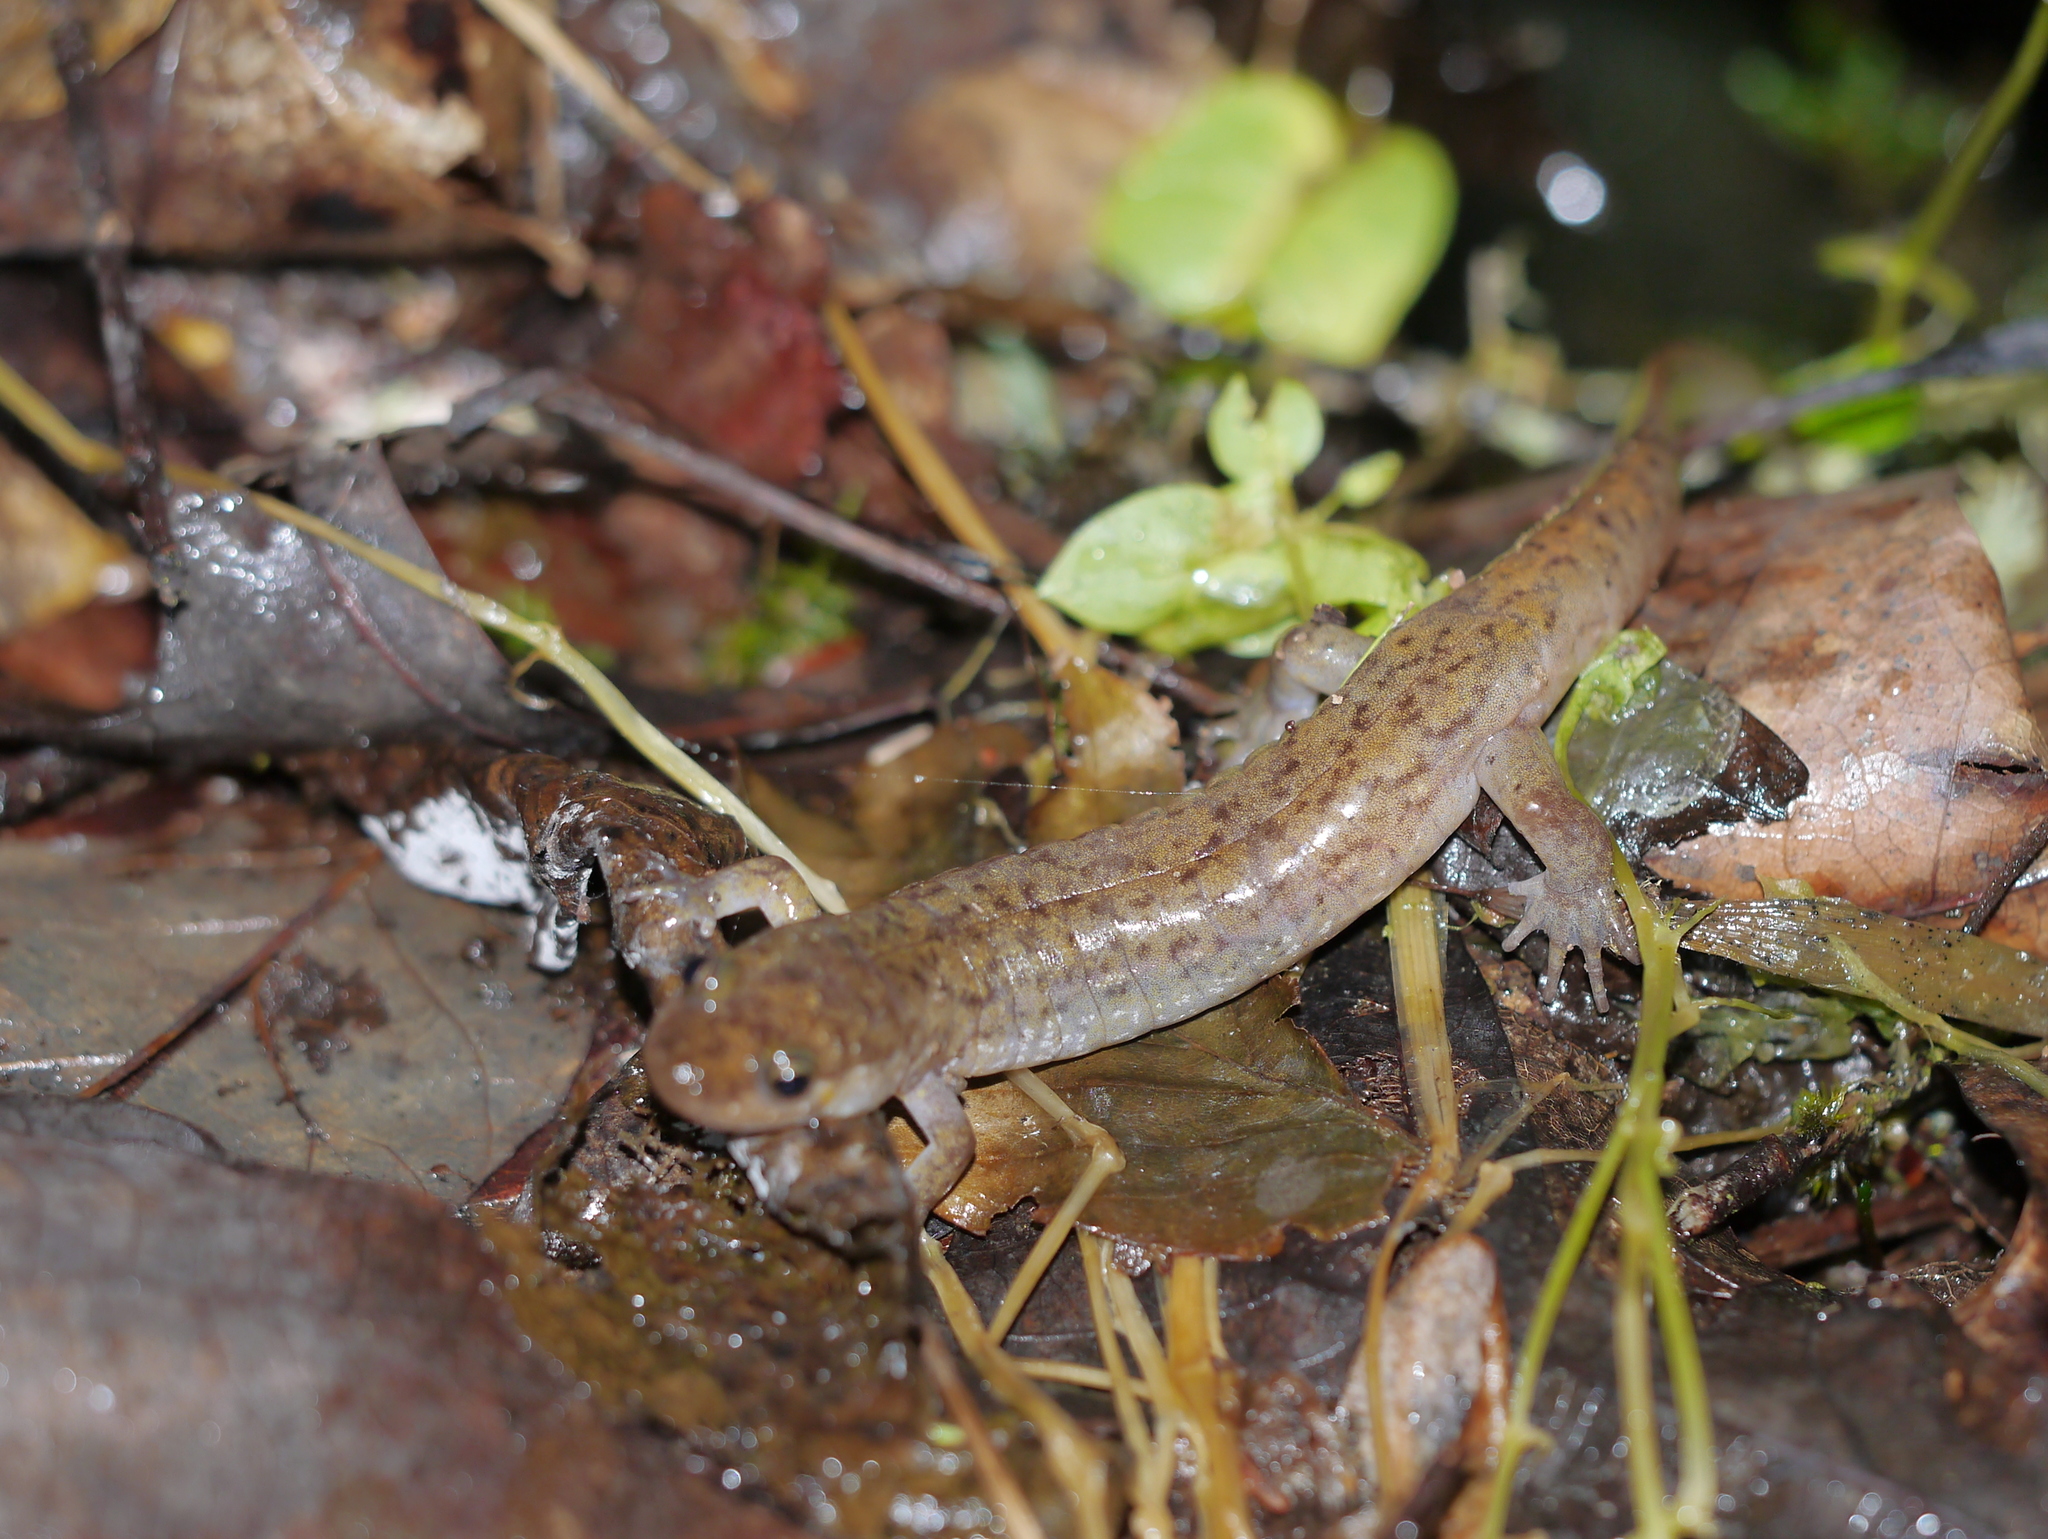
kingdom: Animalia
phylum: Chordata
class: Amphibia
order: Caudata
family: Plethodontidae
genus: Desmognathus
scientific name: Desmognathus monticola
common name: Seal salamander
